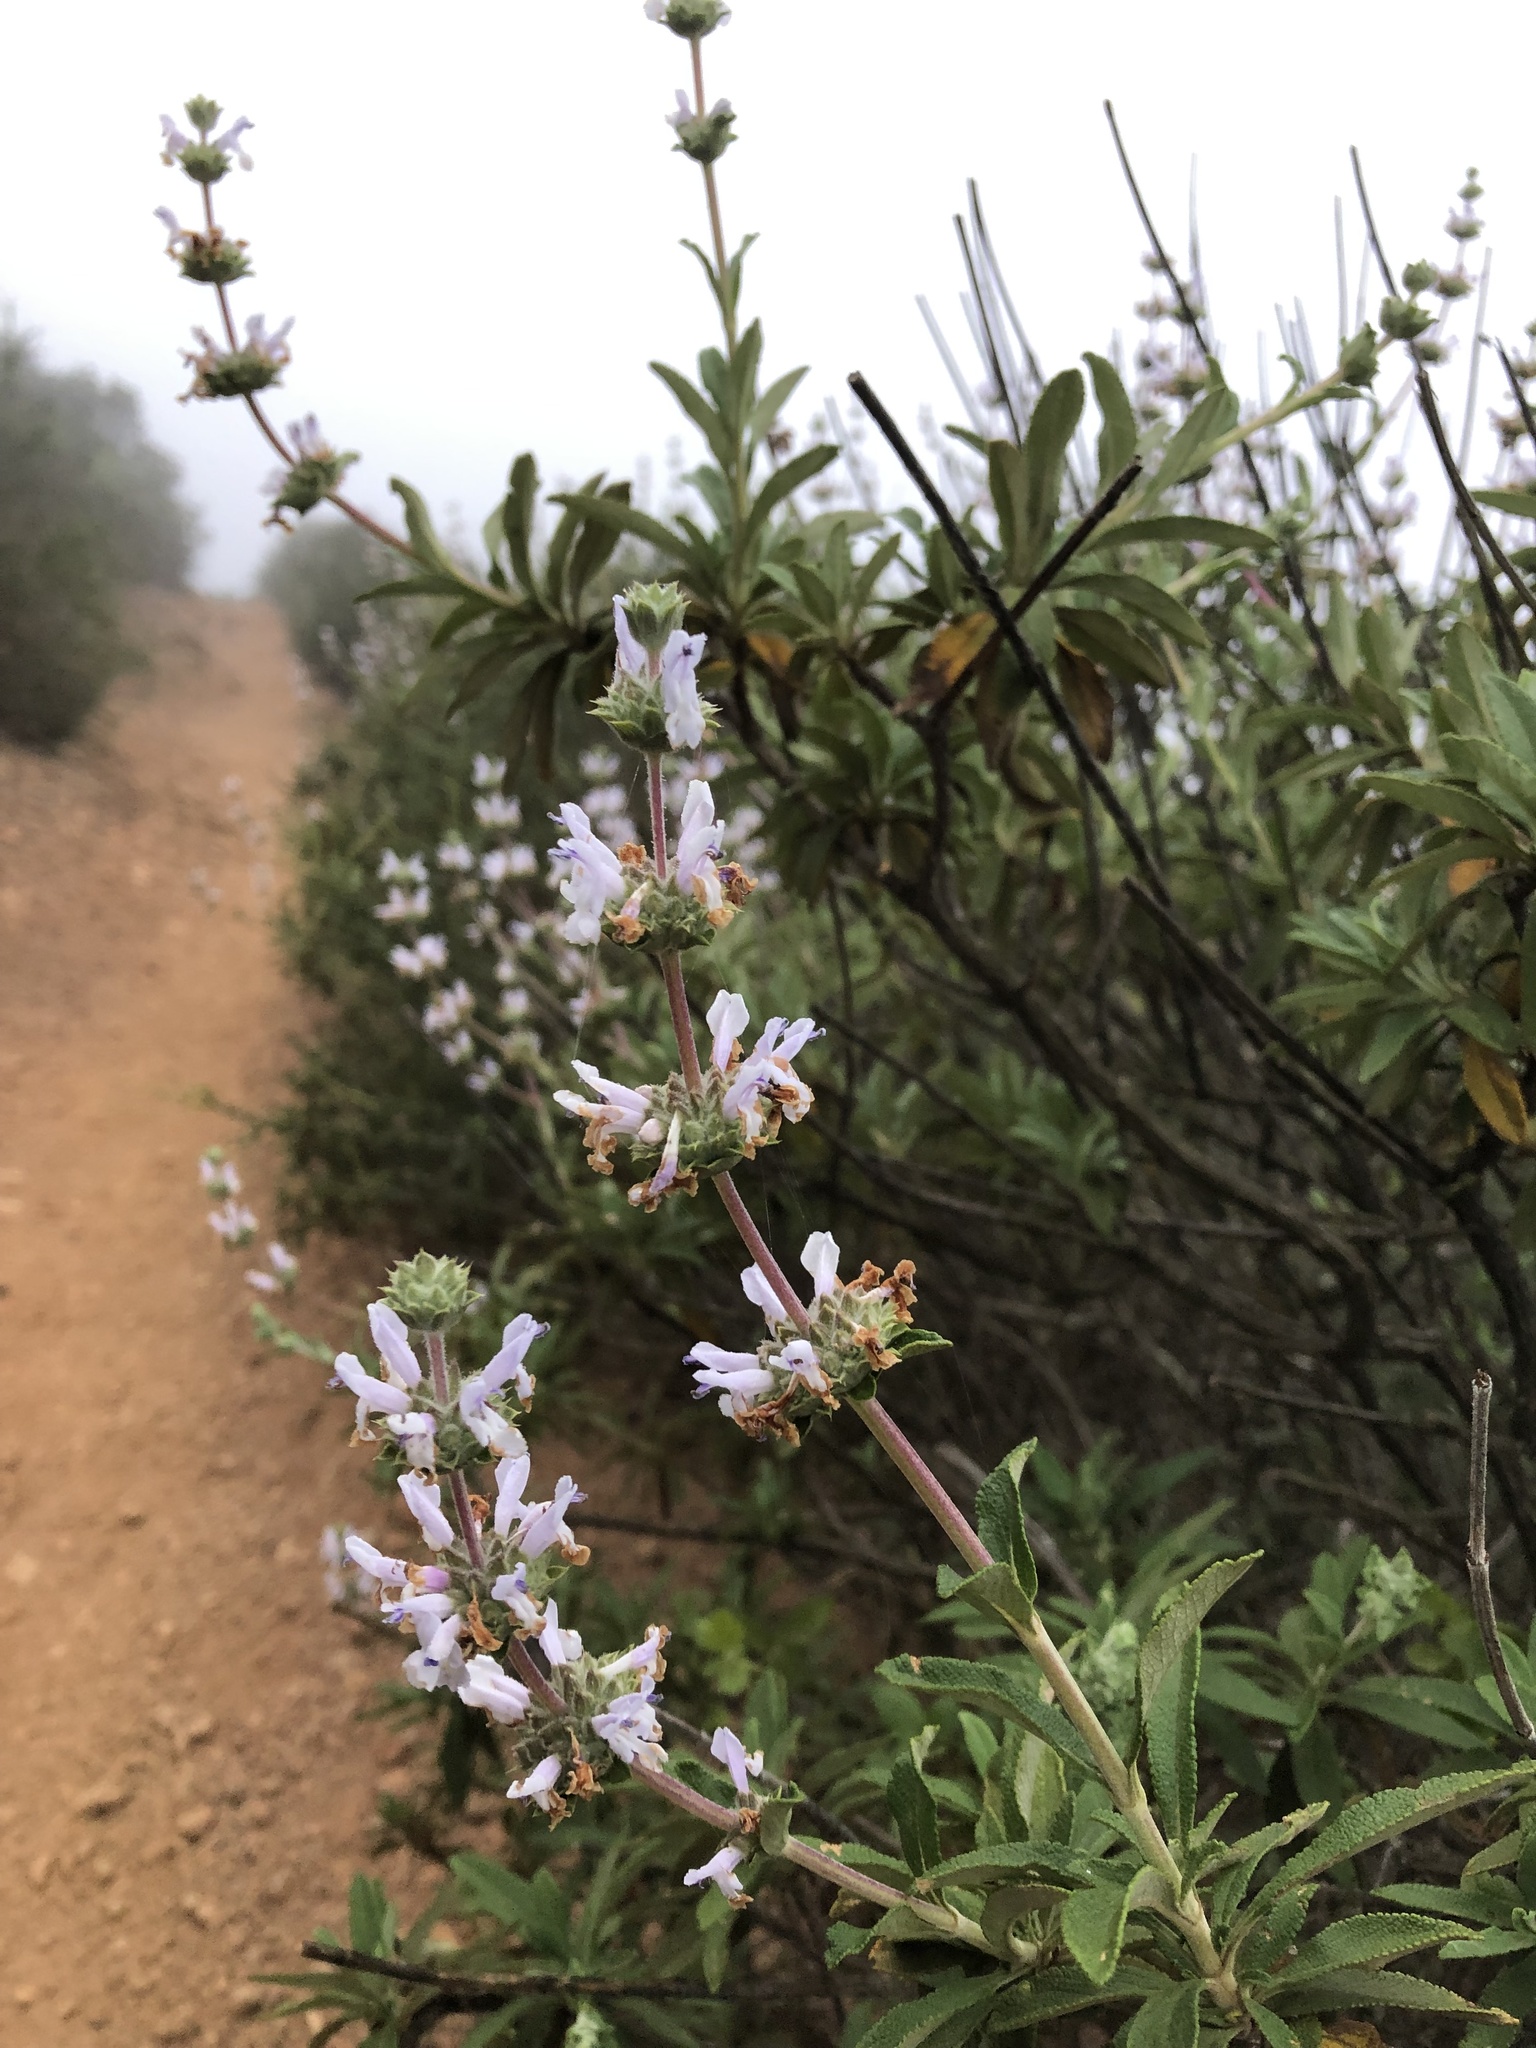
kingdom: Plantae
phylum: Tracheophyta
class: Magnoliopsida
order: Lamiales
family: Lamiaceae
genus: Salvia
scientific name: Salvia mellifera
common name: Black sage
